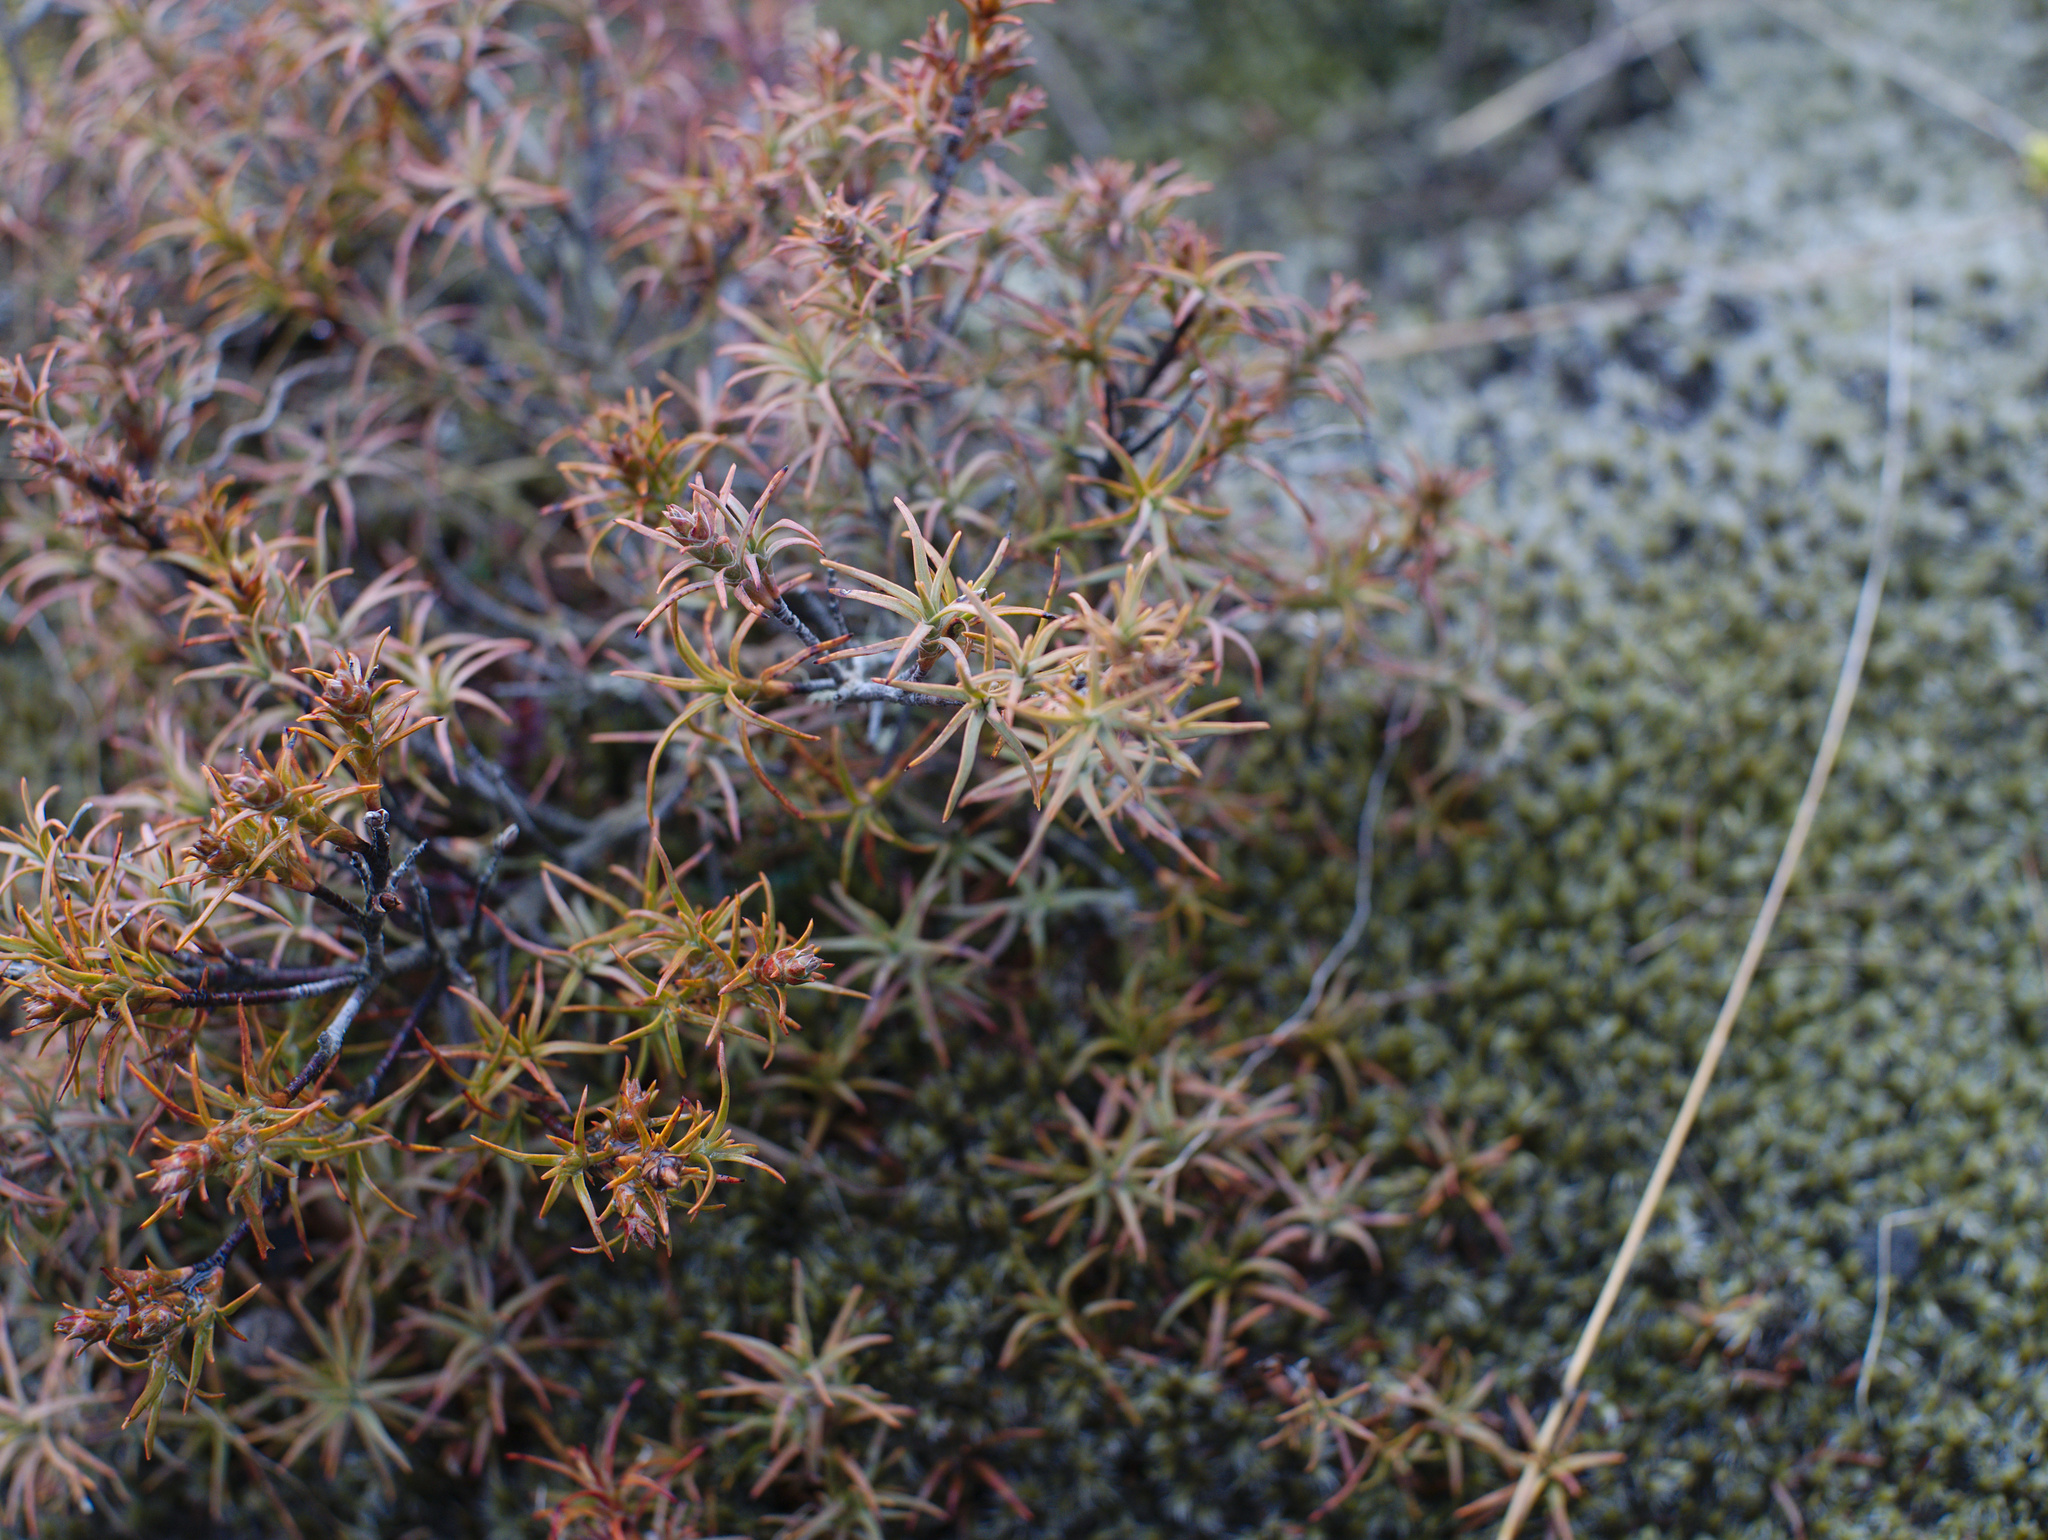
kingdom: Plantae
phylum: Tracheophyta
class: Magnoliopsida
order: Ericales
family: Ericaceae
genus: Dracophyllum
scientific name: Dracophyllum recurvum
